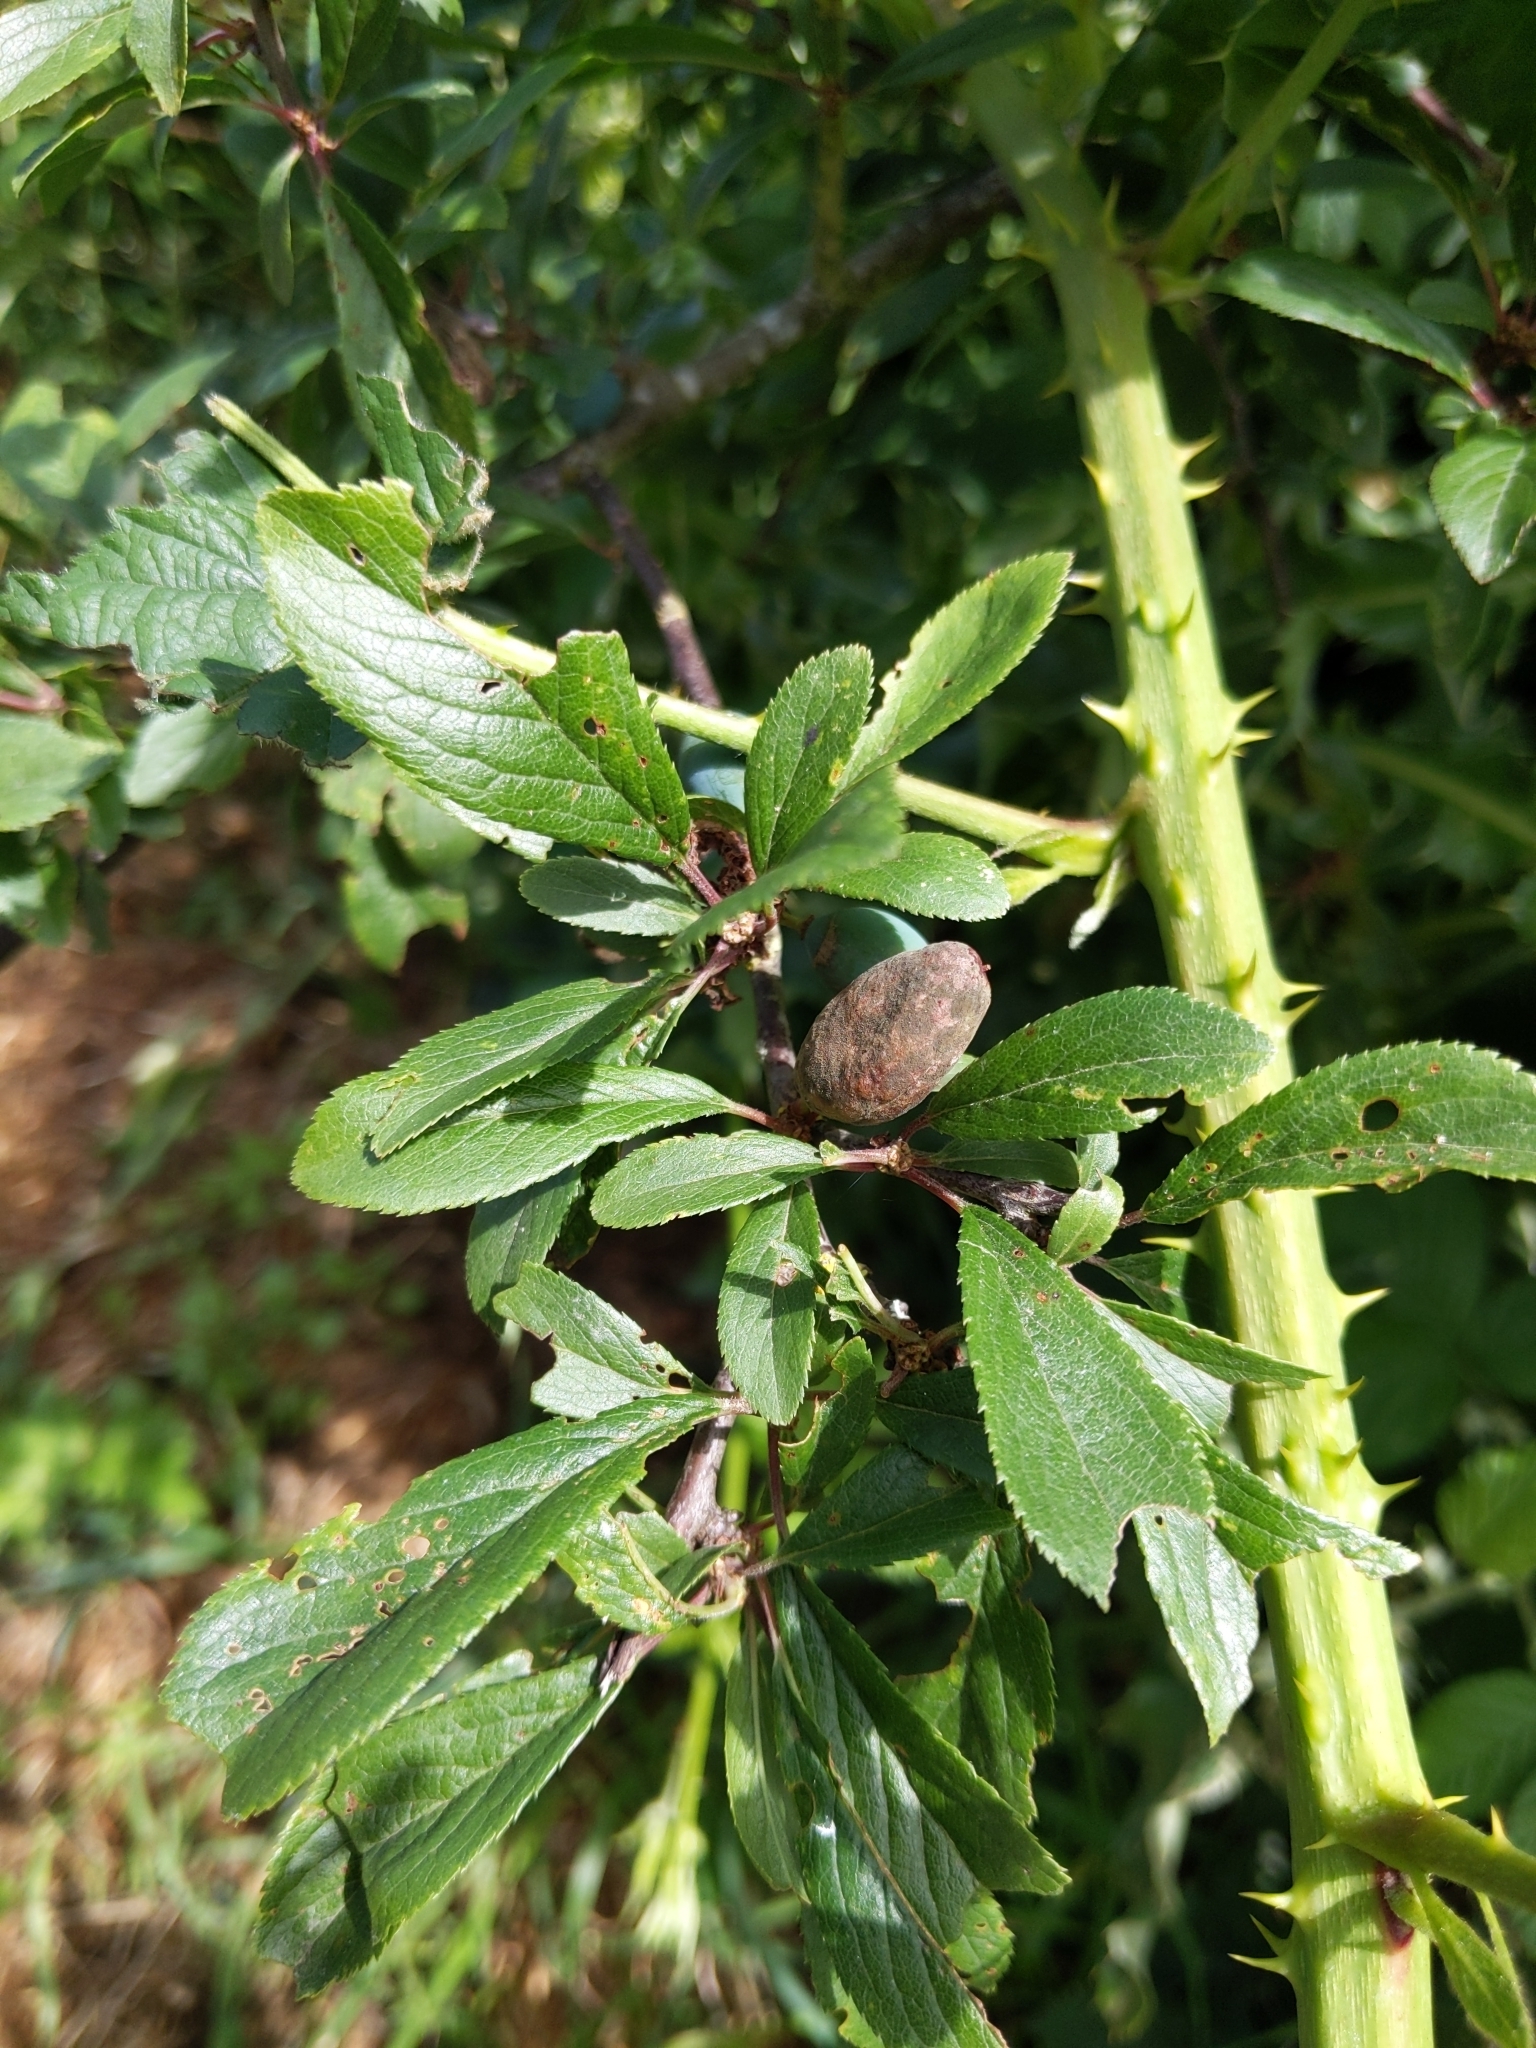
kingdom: Fungi
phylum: Ascomycota
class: Taphrinomycetes
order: Taphrinales
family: Taphrinaceae
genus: Taphrina
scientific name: Taphrina pruni
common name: Pocket plum
